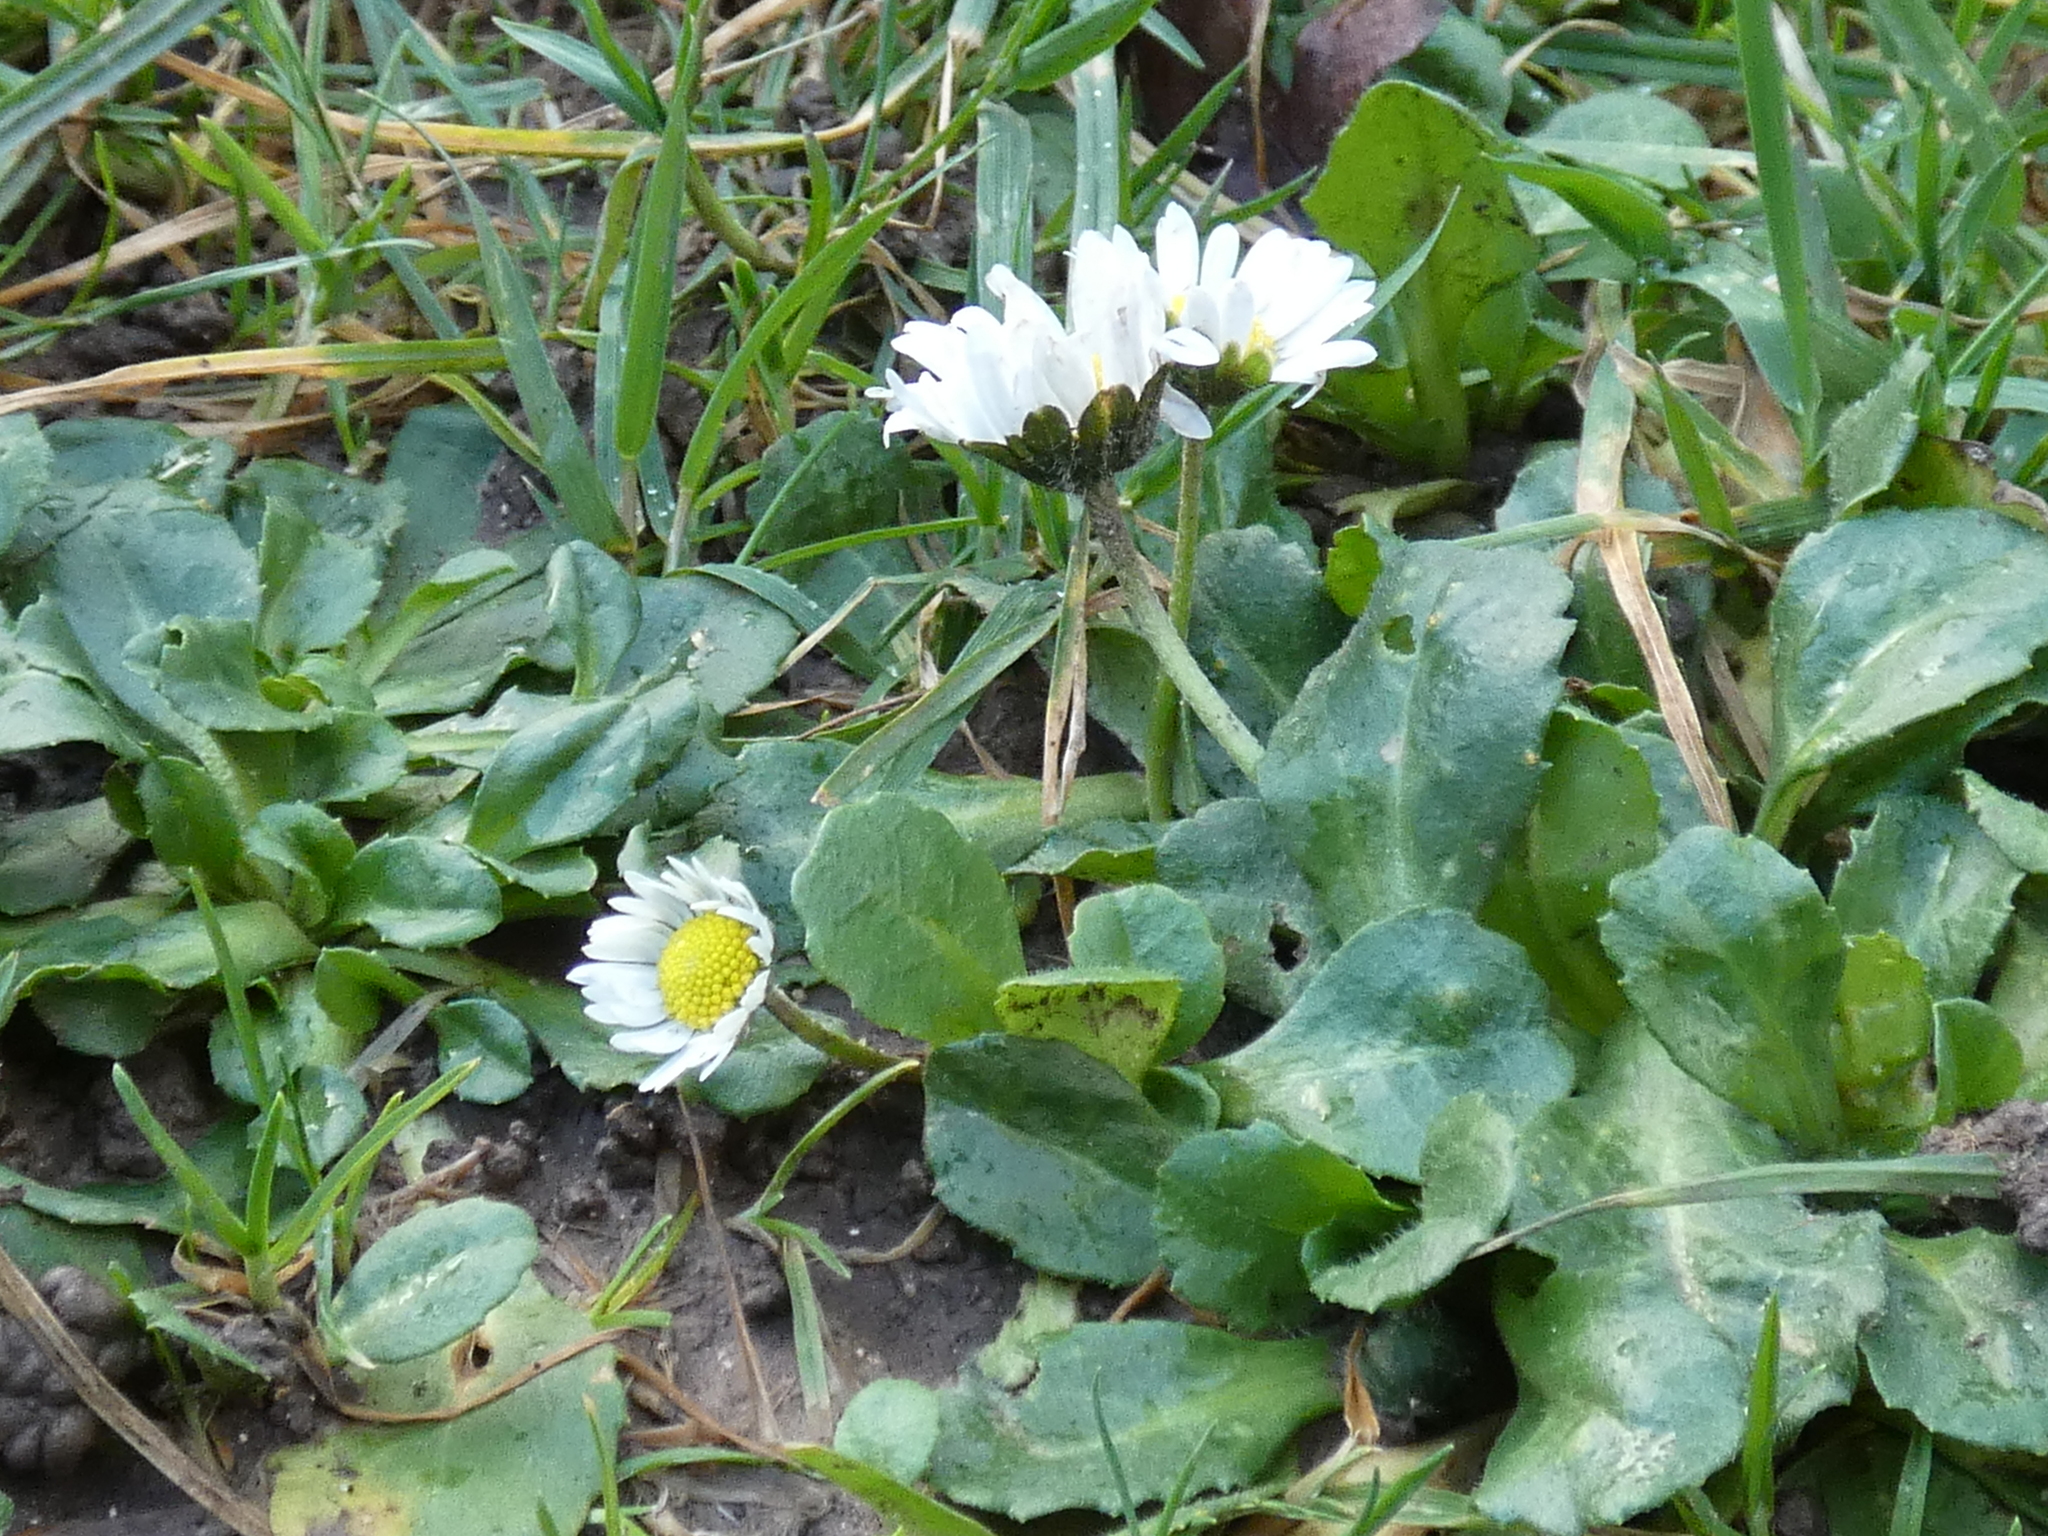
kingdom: Plantae
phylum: Tracheophyta
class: Magnoliopsida
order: Asterales
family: Asteraceae
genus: Bellis
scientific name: Bellis perennis
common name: Lawndaisy
